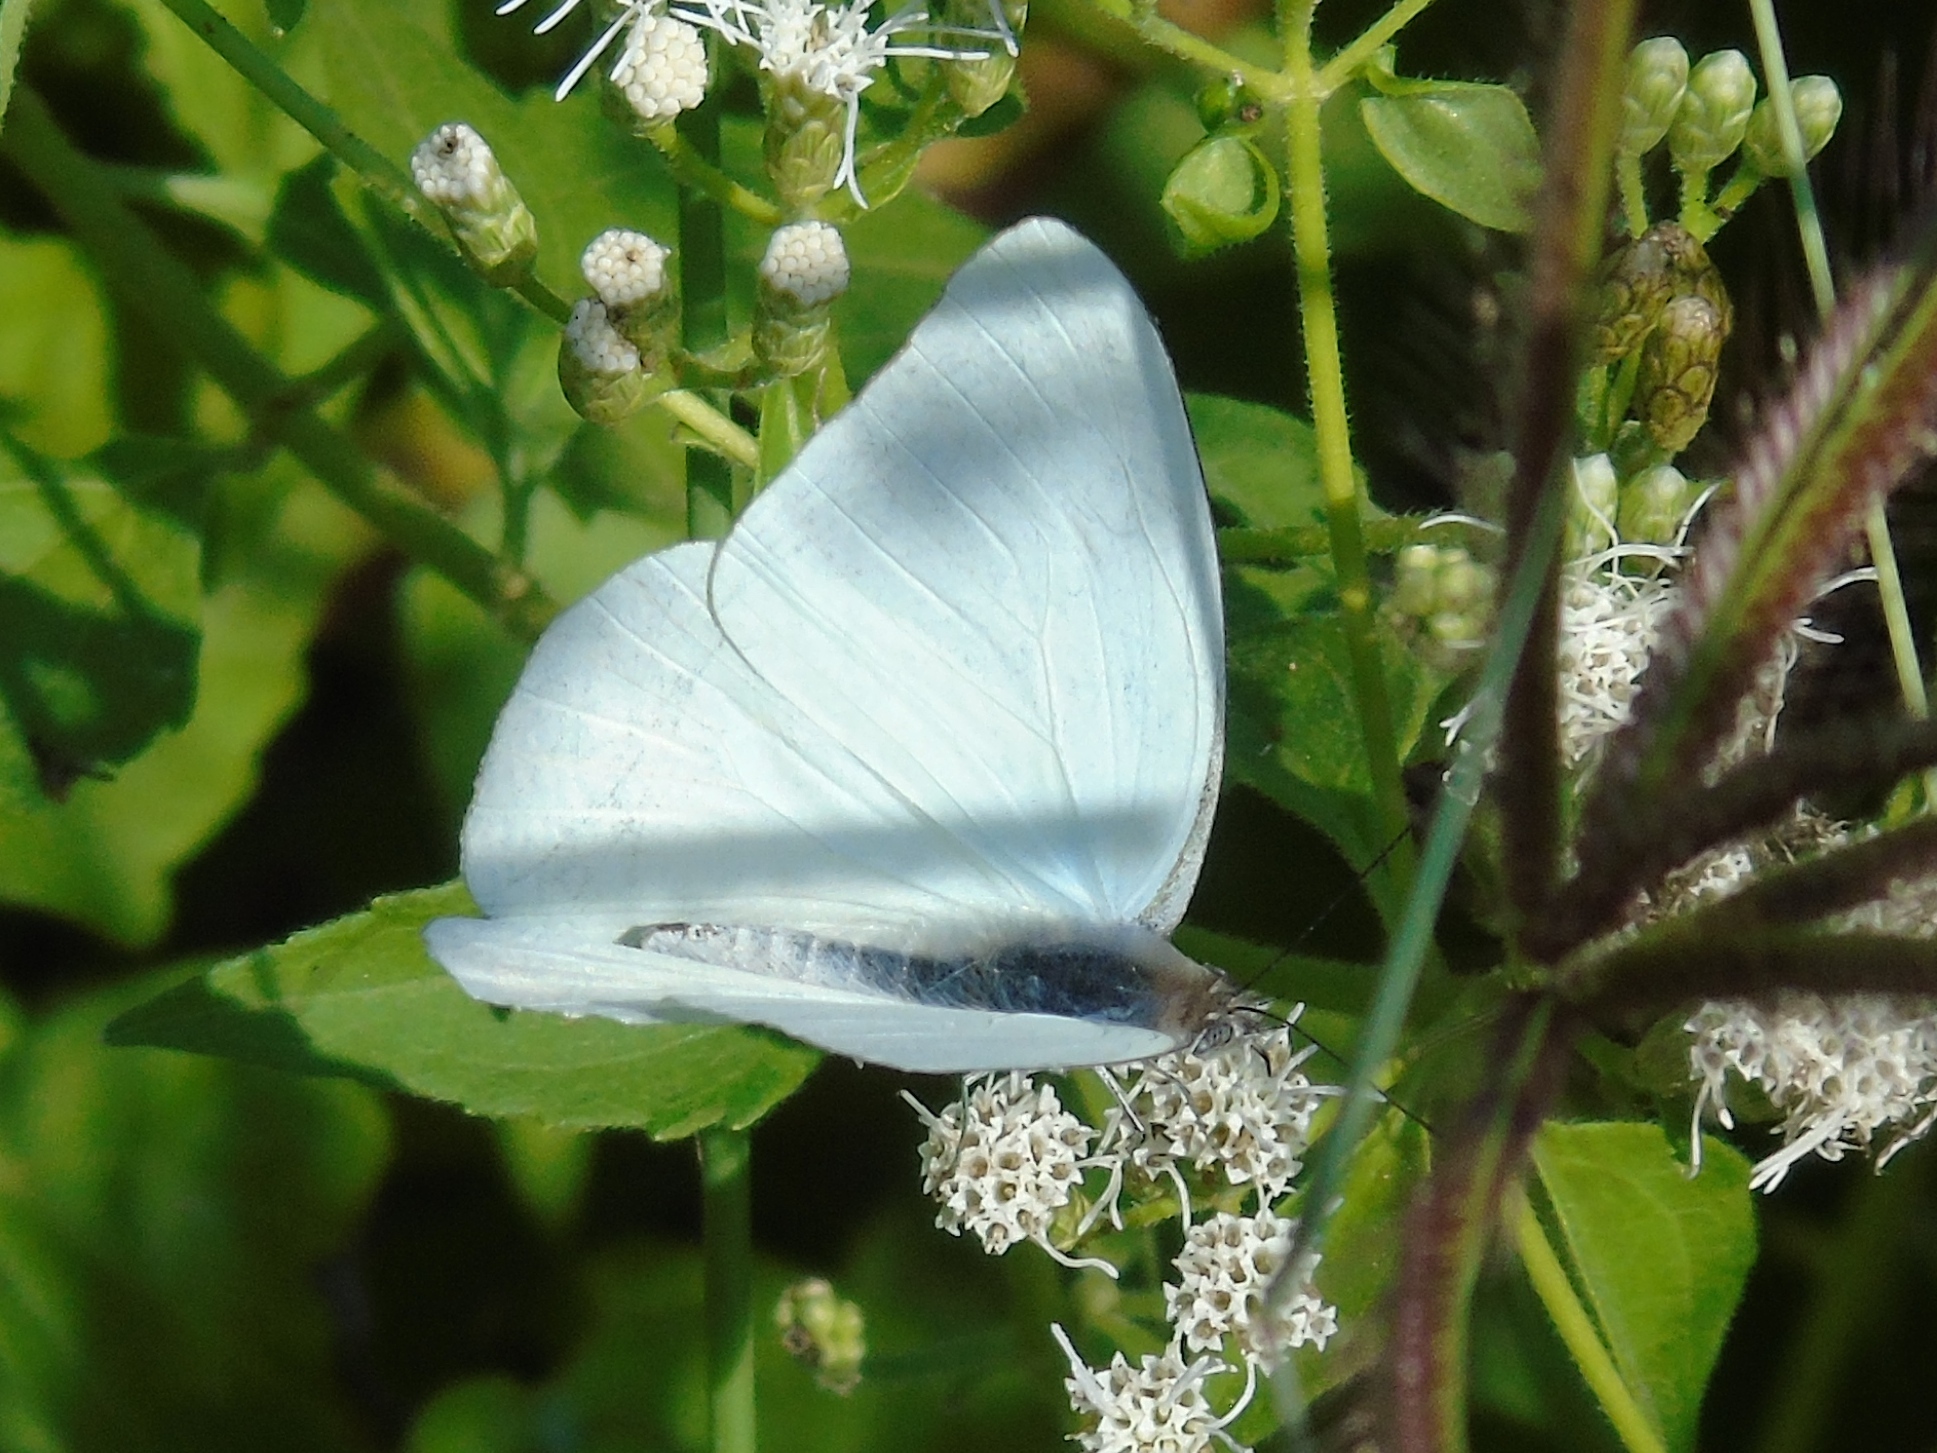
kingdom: Animalia
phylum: Arthropoda
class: Insecta
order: Lepidoptera
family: Pieridae
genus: Glutophrissa
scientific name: Glutophrissa drusilla
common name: Florida white
